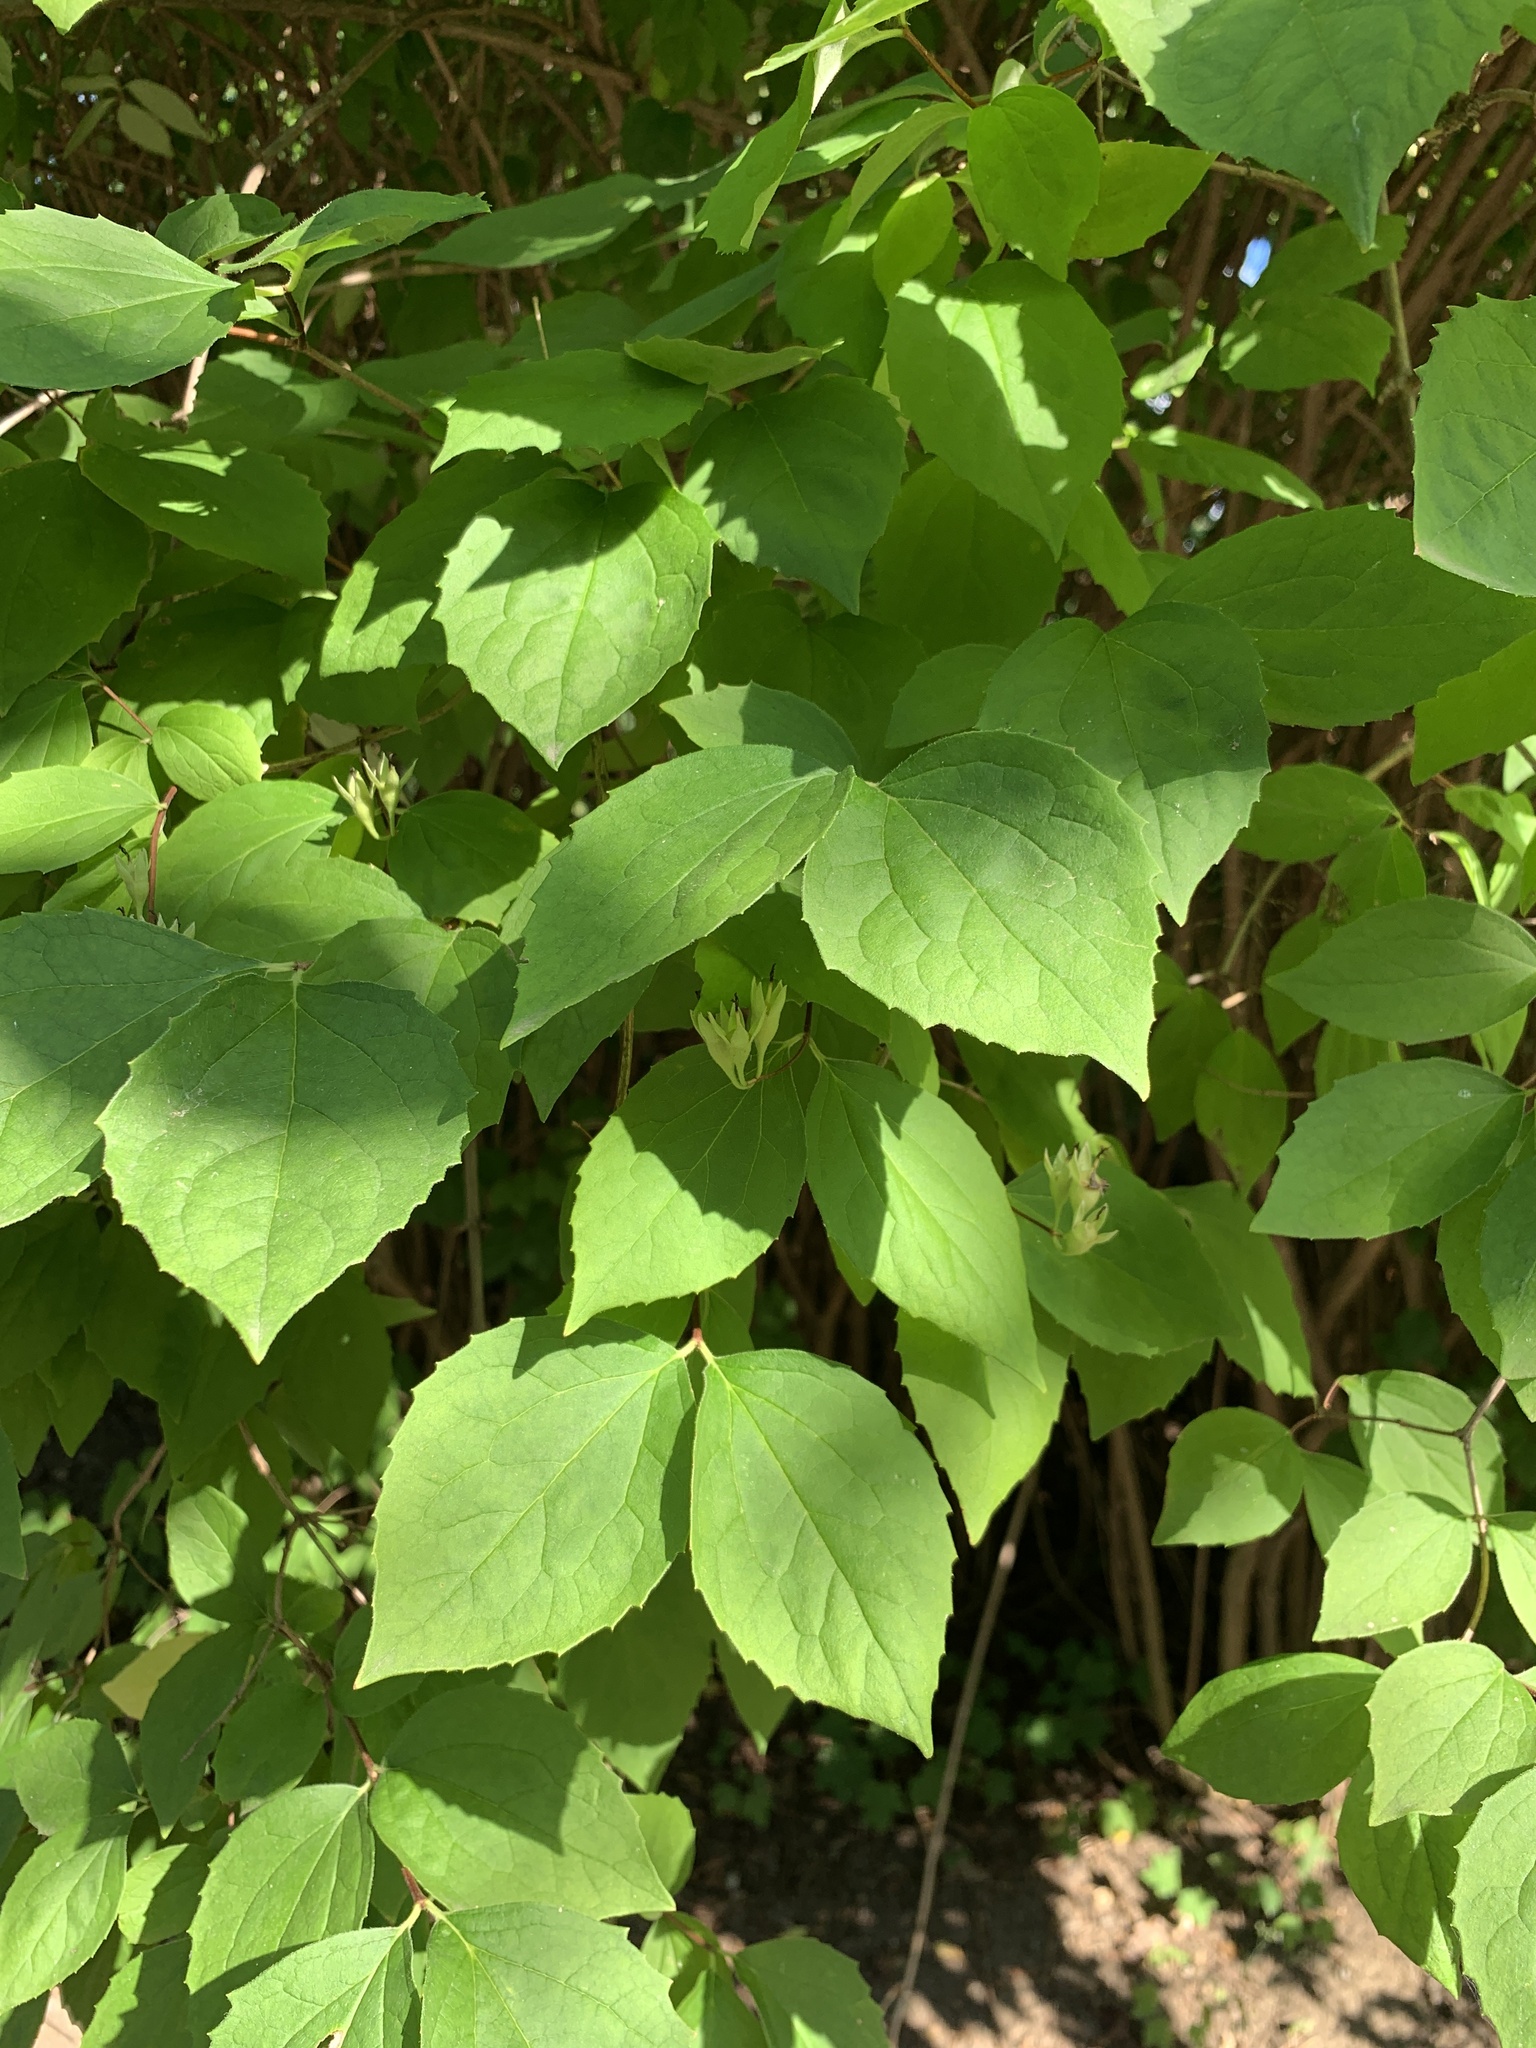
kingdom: Plantae
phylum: Tracheophyta
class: Magnoliopsida
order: Cornales
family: Hydrangeaceae
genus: Philadelphus
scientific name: Philadelphus coronarius
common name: Mock orange
